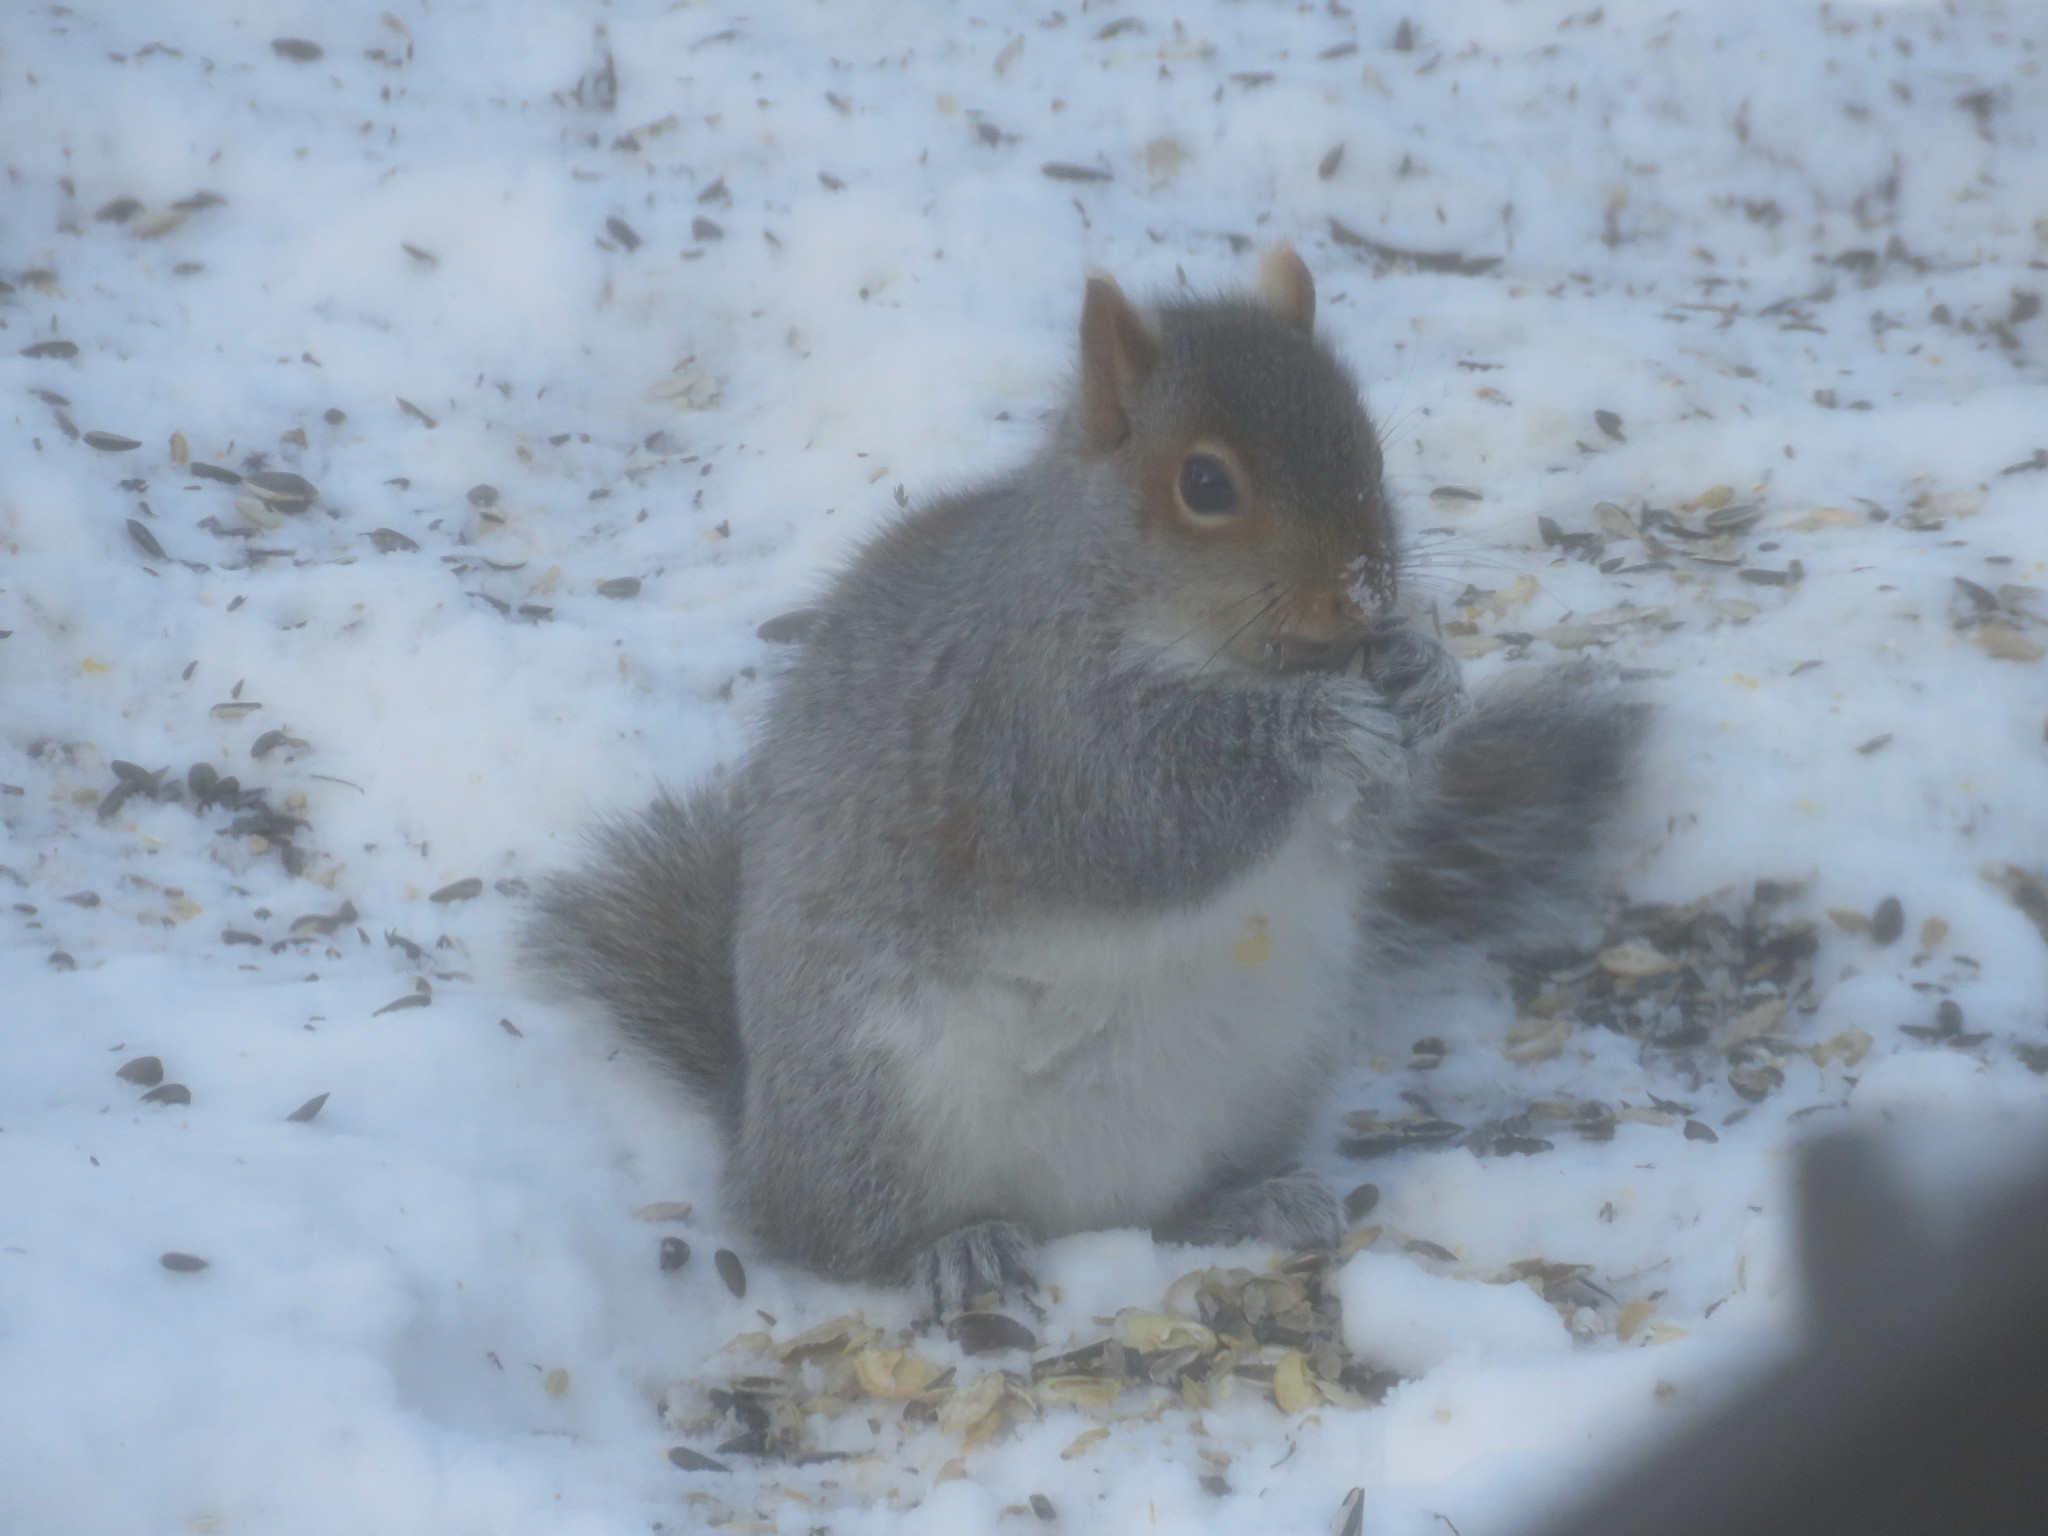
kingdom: Animalia
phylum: Chordata
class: Mammalia
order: Rodentia
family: Sciuridae
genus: Sciurus
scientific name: Sciurus carolinensis
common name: Eastern gray squirrel
